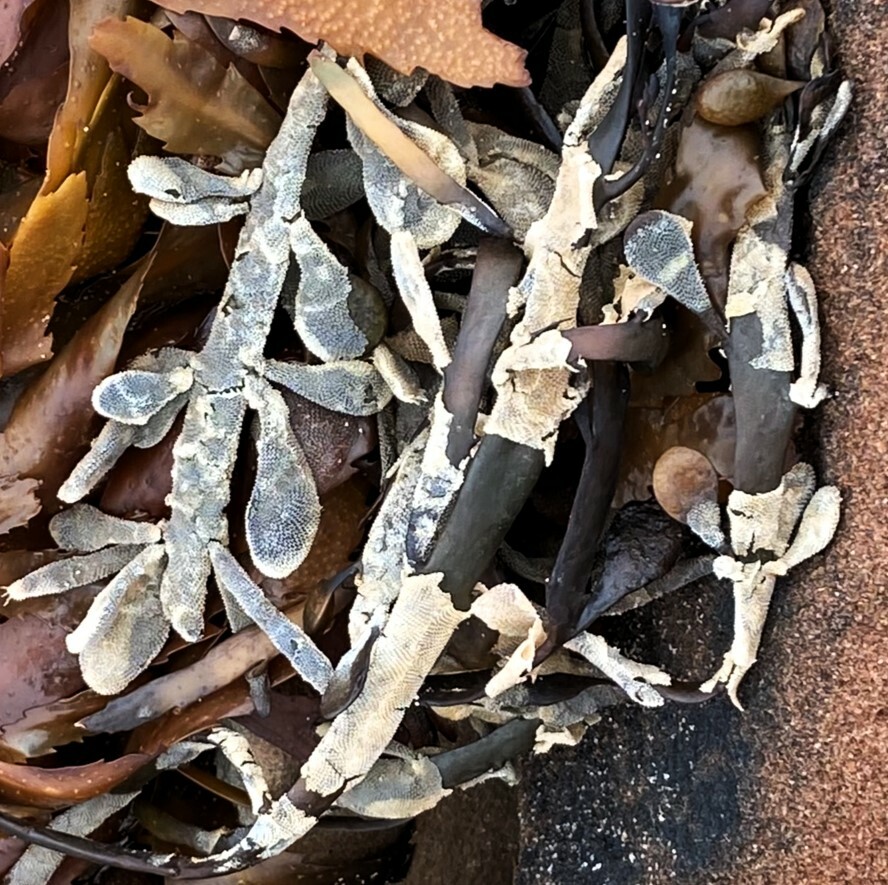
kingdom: Animalia
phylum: Bryozoa
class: Gymnolaemata
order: Cheilostomatida
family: Electridae
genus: Electra
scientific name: Electra pilosa
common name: Hairy sea-mat
